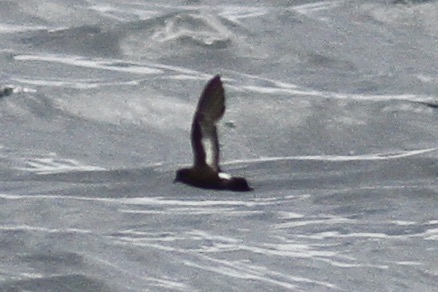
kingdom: Animalia
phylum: Chordata
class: Aves
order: Procellariiformes
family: Hydrobatidae
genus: Hydrobates
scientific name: Hydrobates pelagicus
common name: European storm-petrel
